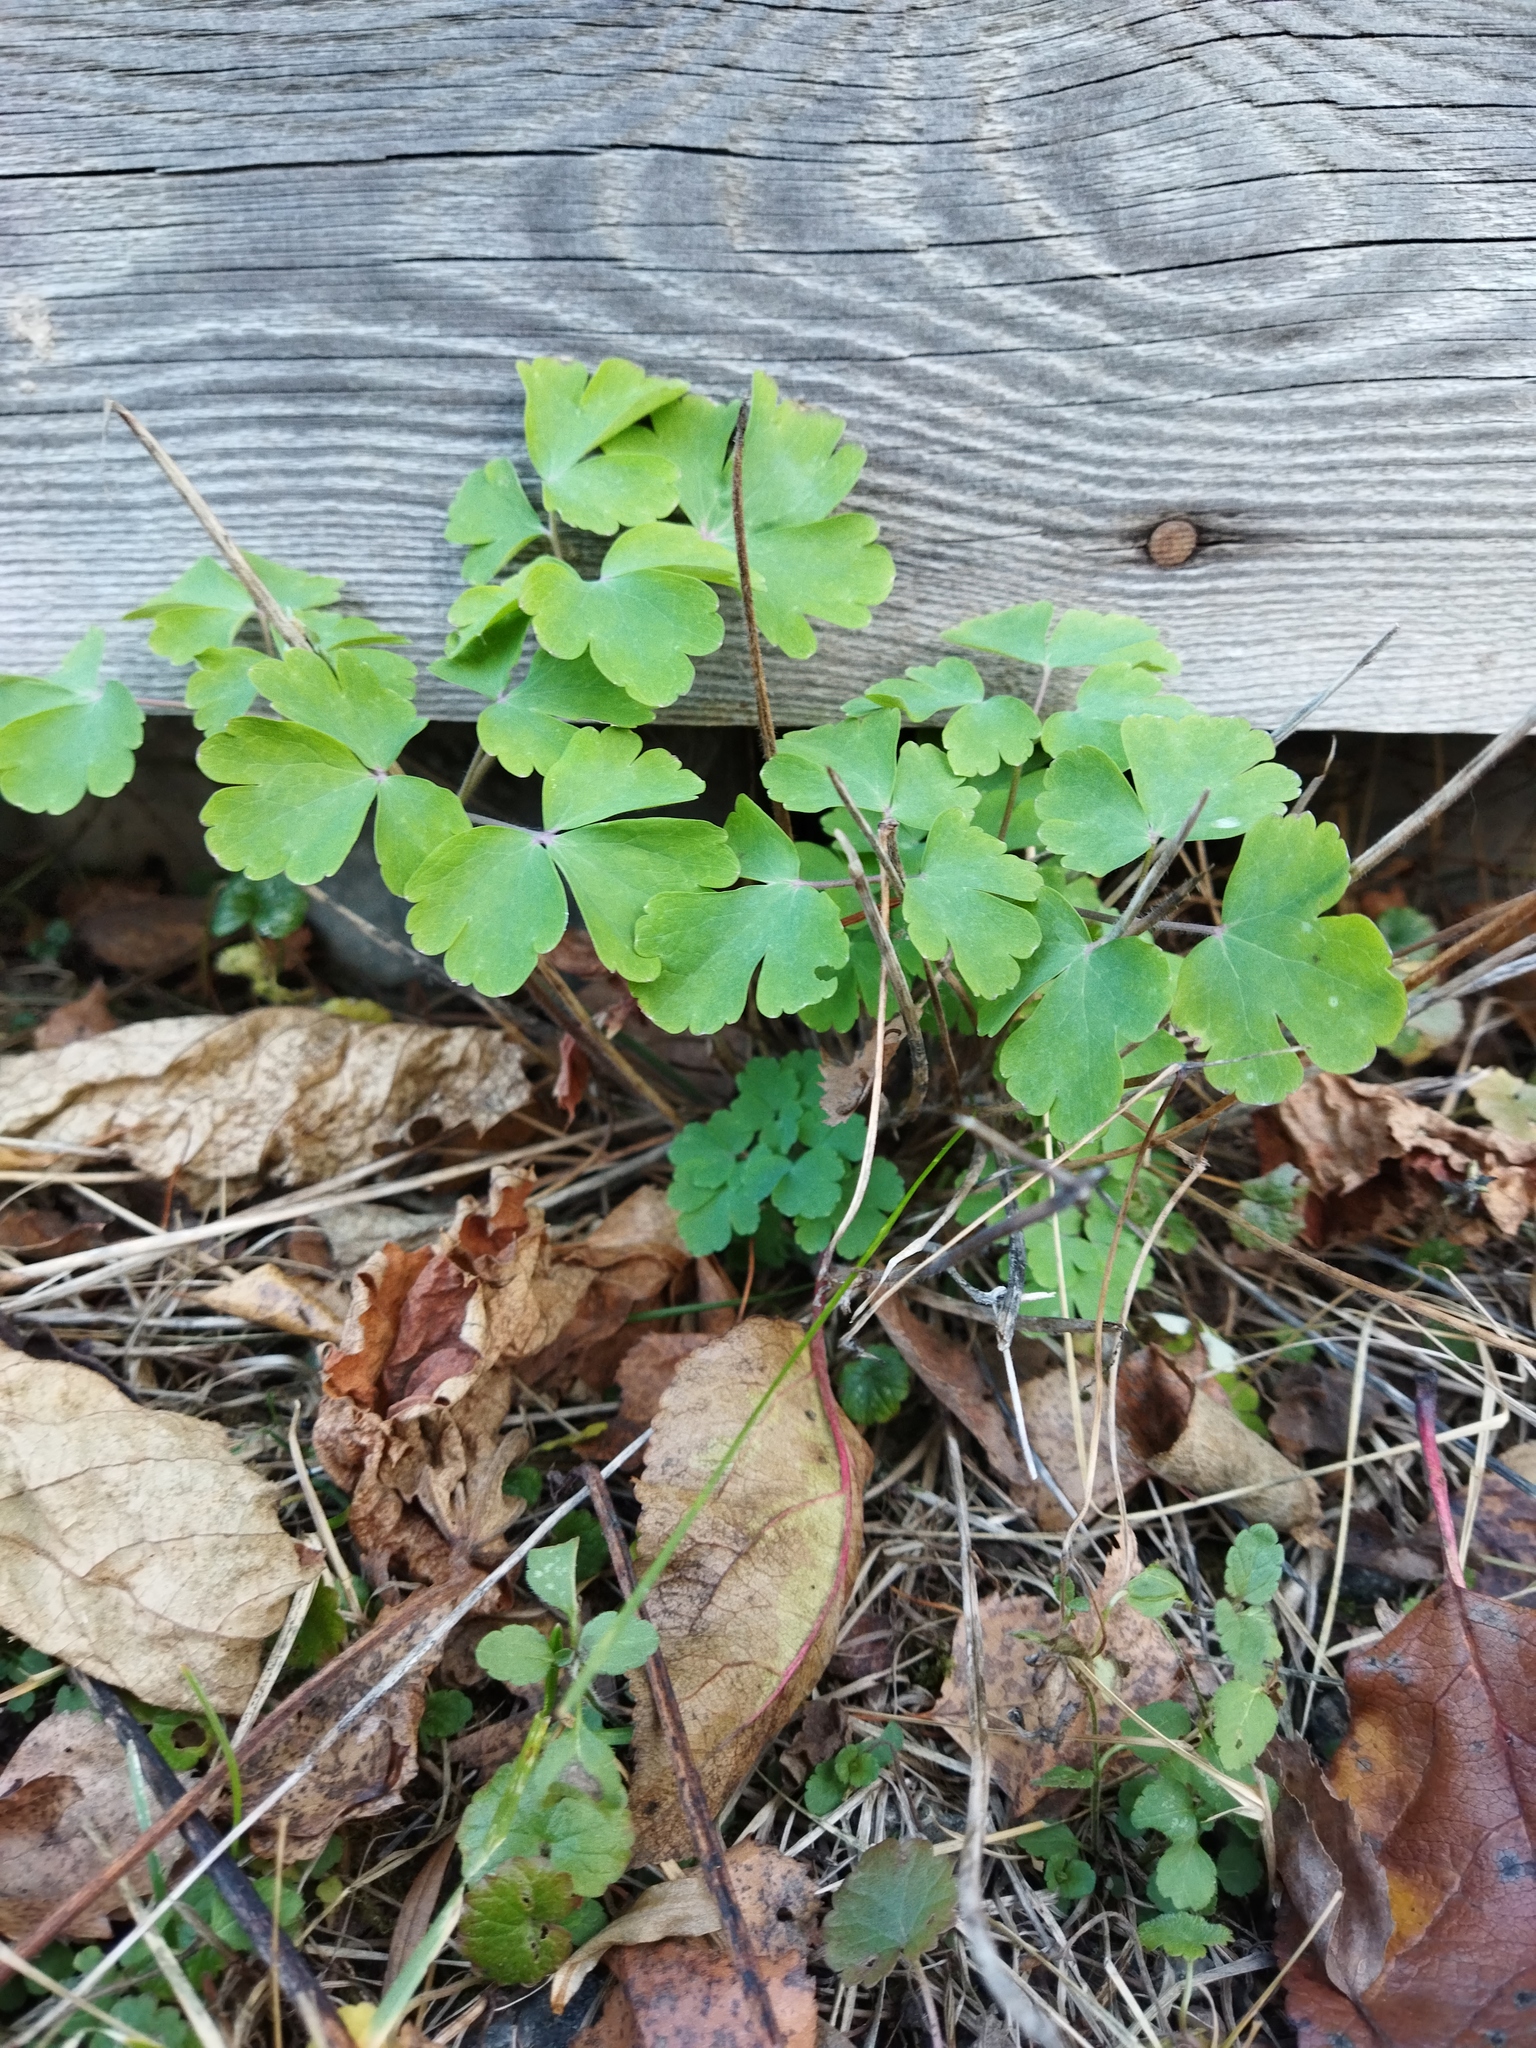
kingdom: Plantae
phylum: Tracheophyta
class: Magnoliopsida
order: Ranunculales
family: Ranunculaceae
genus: Aquilegia
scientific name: Aquilegia vulgaris
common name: Columbine
